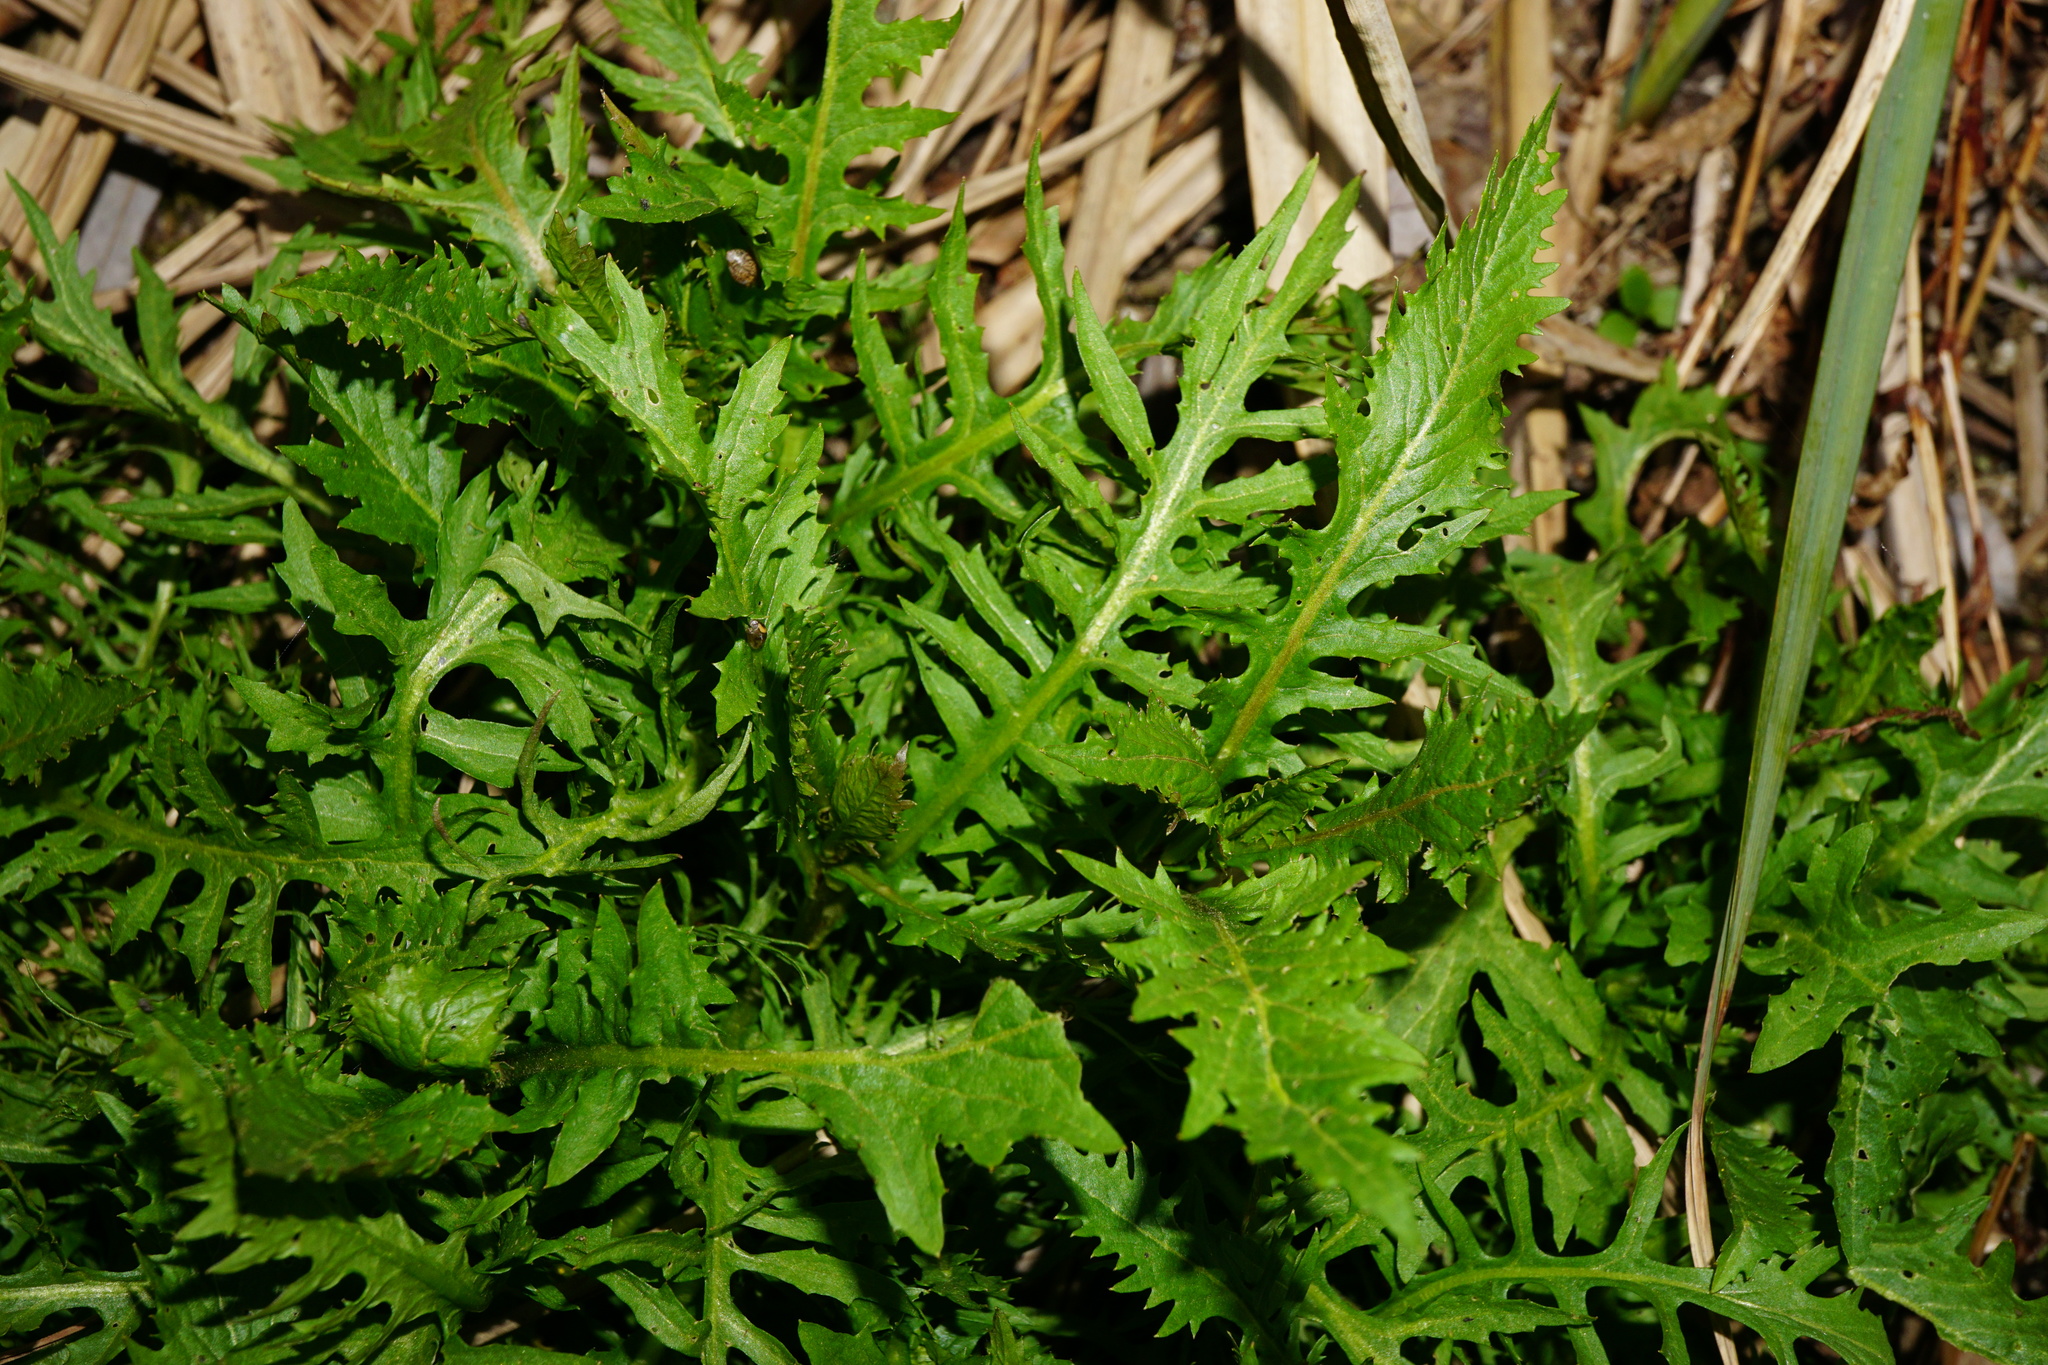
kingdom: Plantae
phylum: Tracheophyta
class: Magnoliopsida
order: Brassicales
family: Brassicaceae
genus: Rorippa
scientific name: Rorippa amphibia
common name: Great yellow-cress
